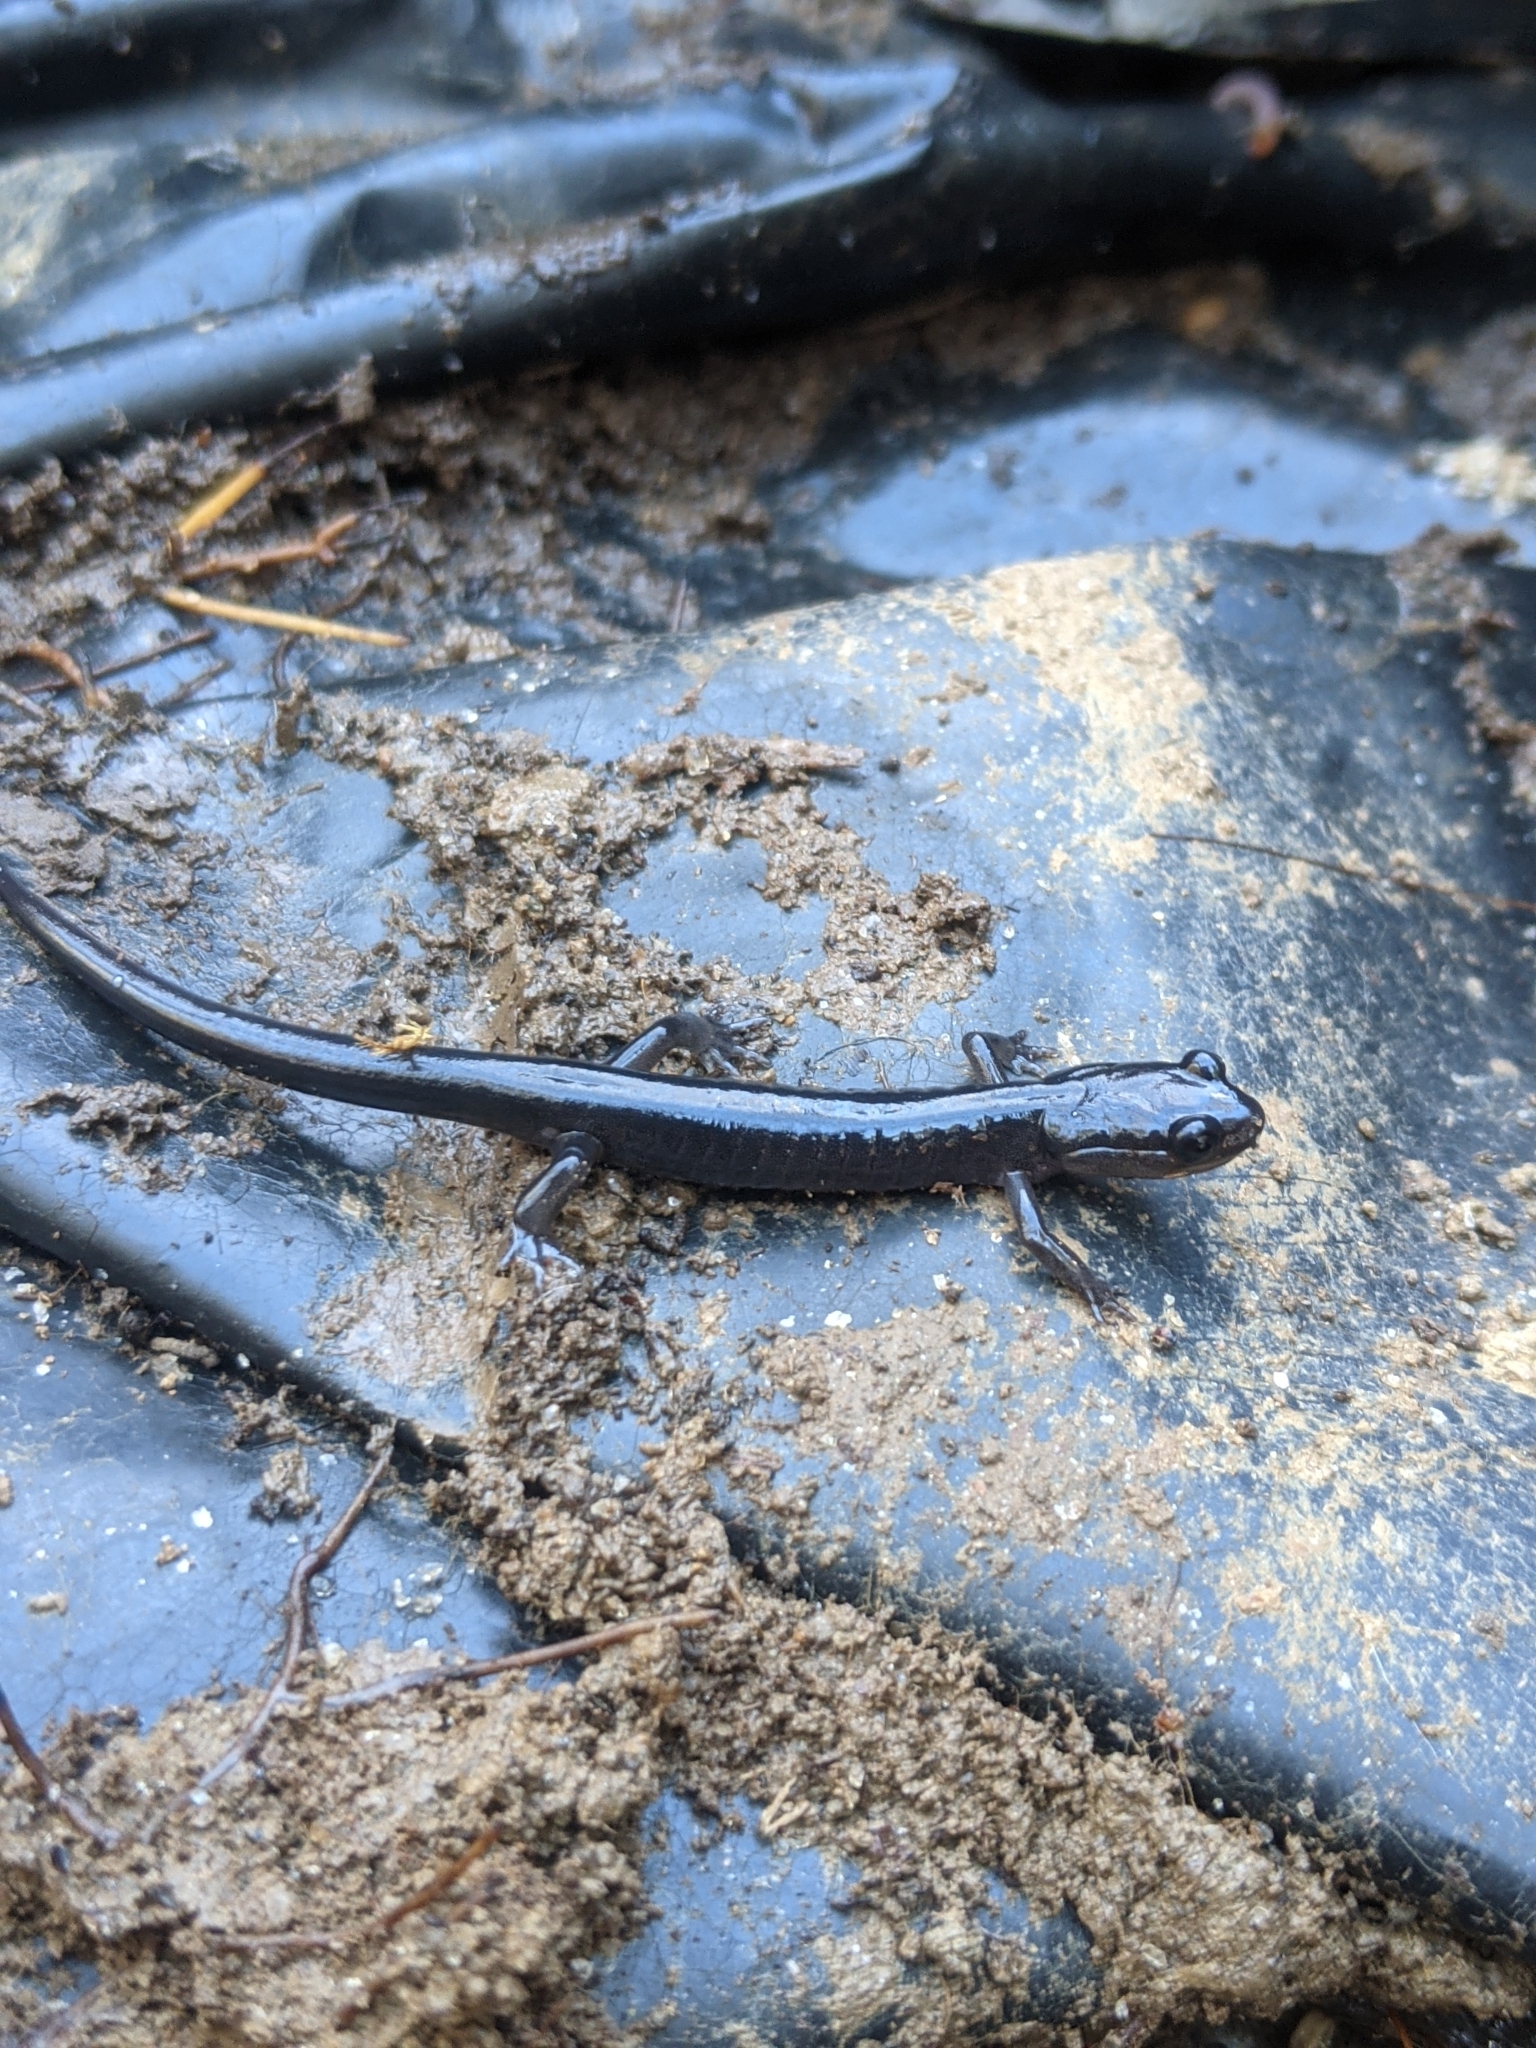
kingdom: Animalia
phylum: Chordata
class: Amphibia
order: Caudata
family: Plethodontidae
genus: Plethodon
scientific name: Plethodon metcalfi
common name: Southern gray-cheeked salamander
